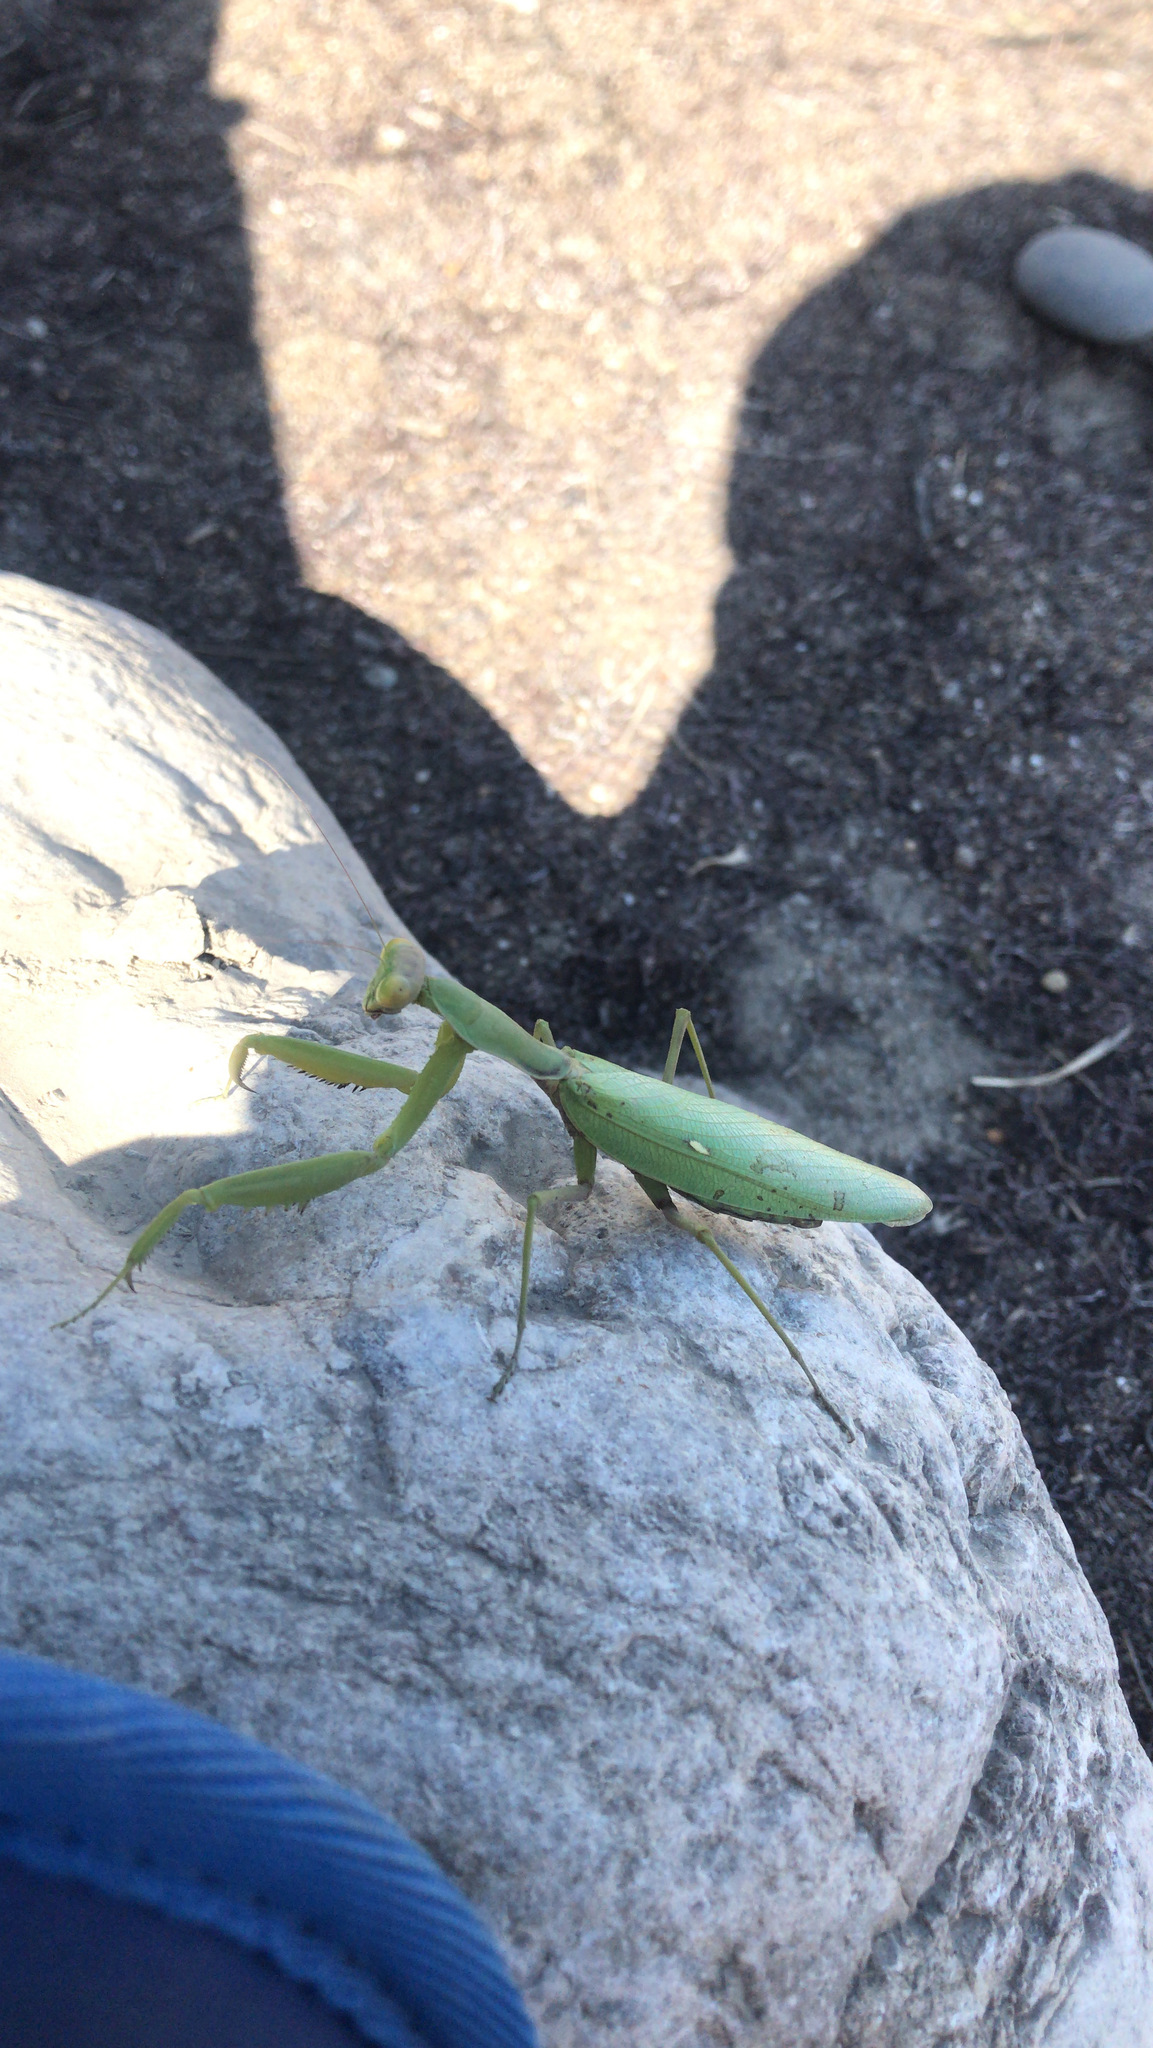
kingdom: Animalia
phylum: Arthropoda
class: Insecta
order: Mantodea
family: Mantidae
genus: Hierodula
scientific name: Hierodula transcaucasica
